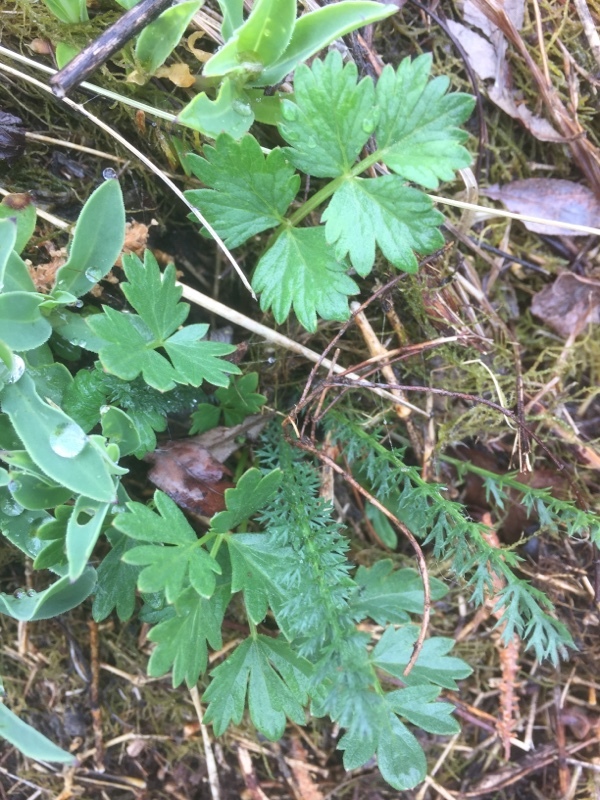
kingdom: Plantae
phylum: Tracheophyta
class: Magnoliopsida
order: Apiales
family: Apiaceae
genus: Pimpinella
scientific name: Pimpinella saxifraga
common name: Burnet-saxifrage
